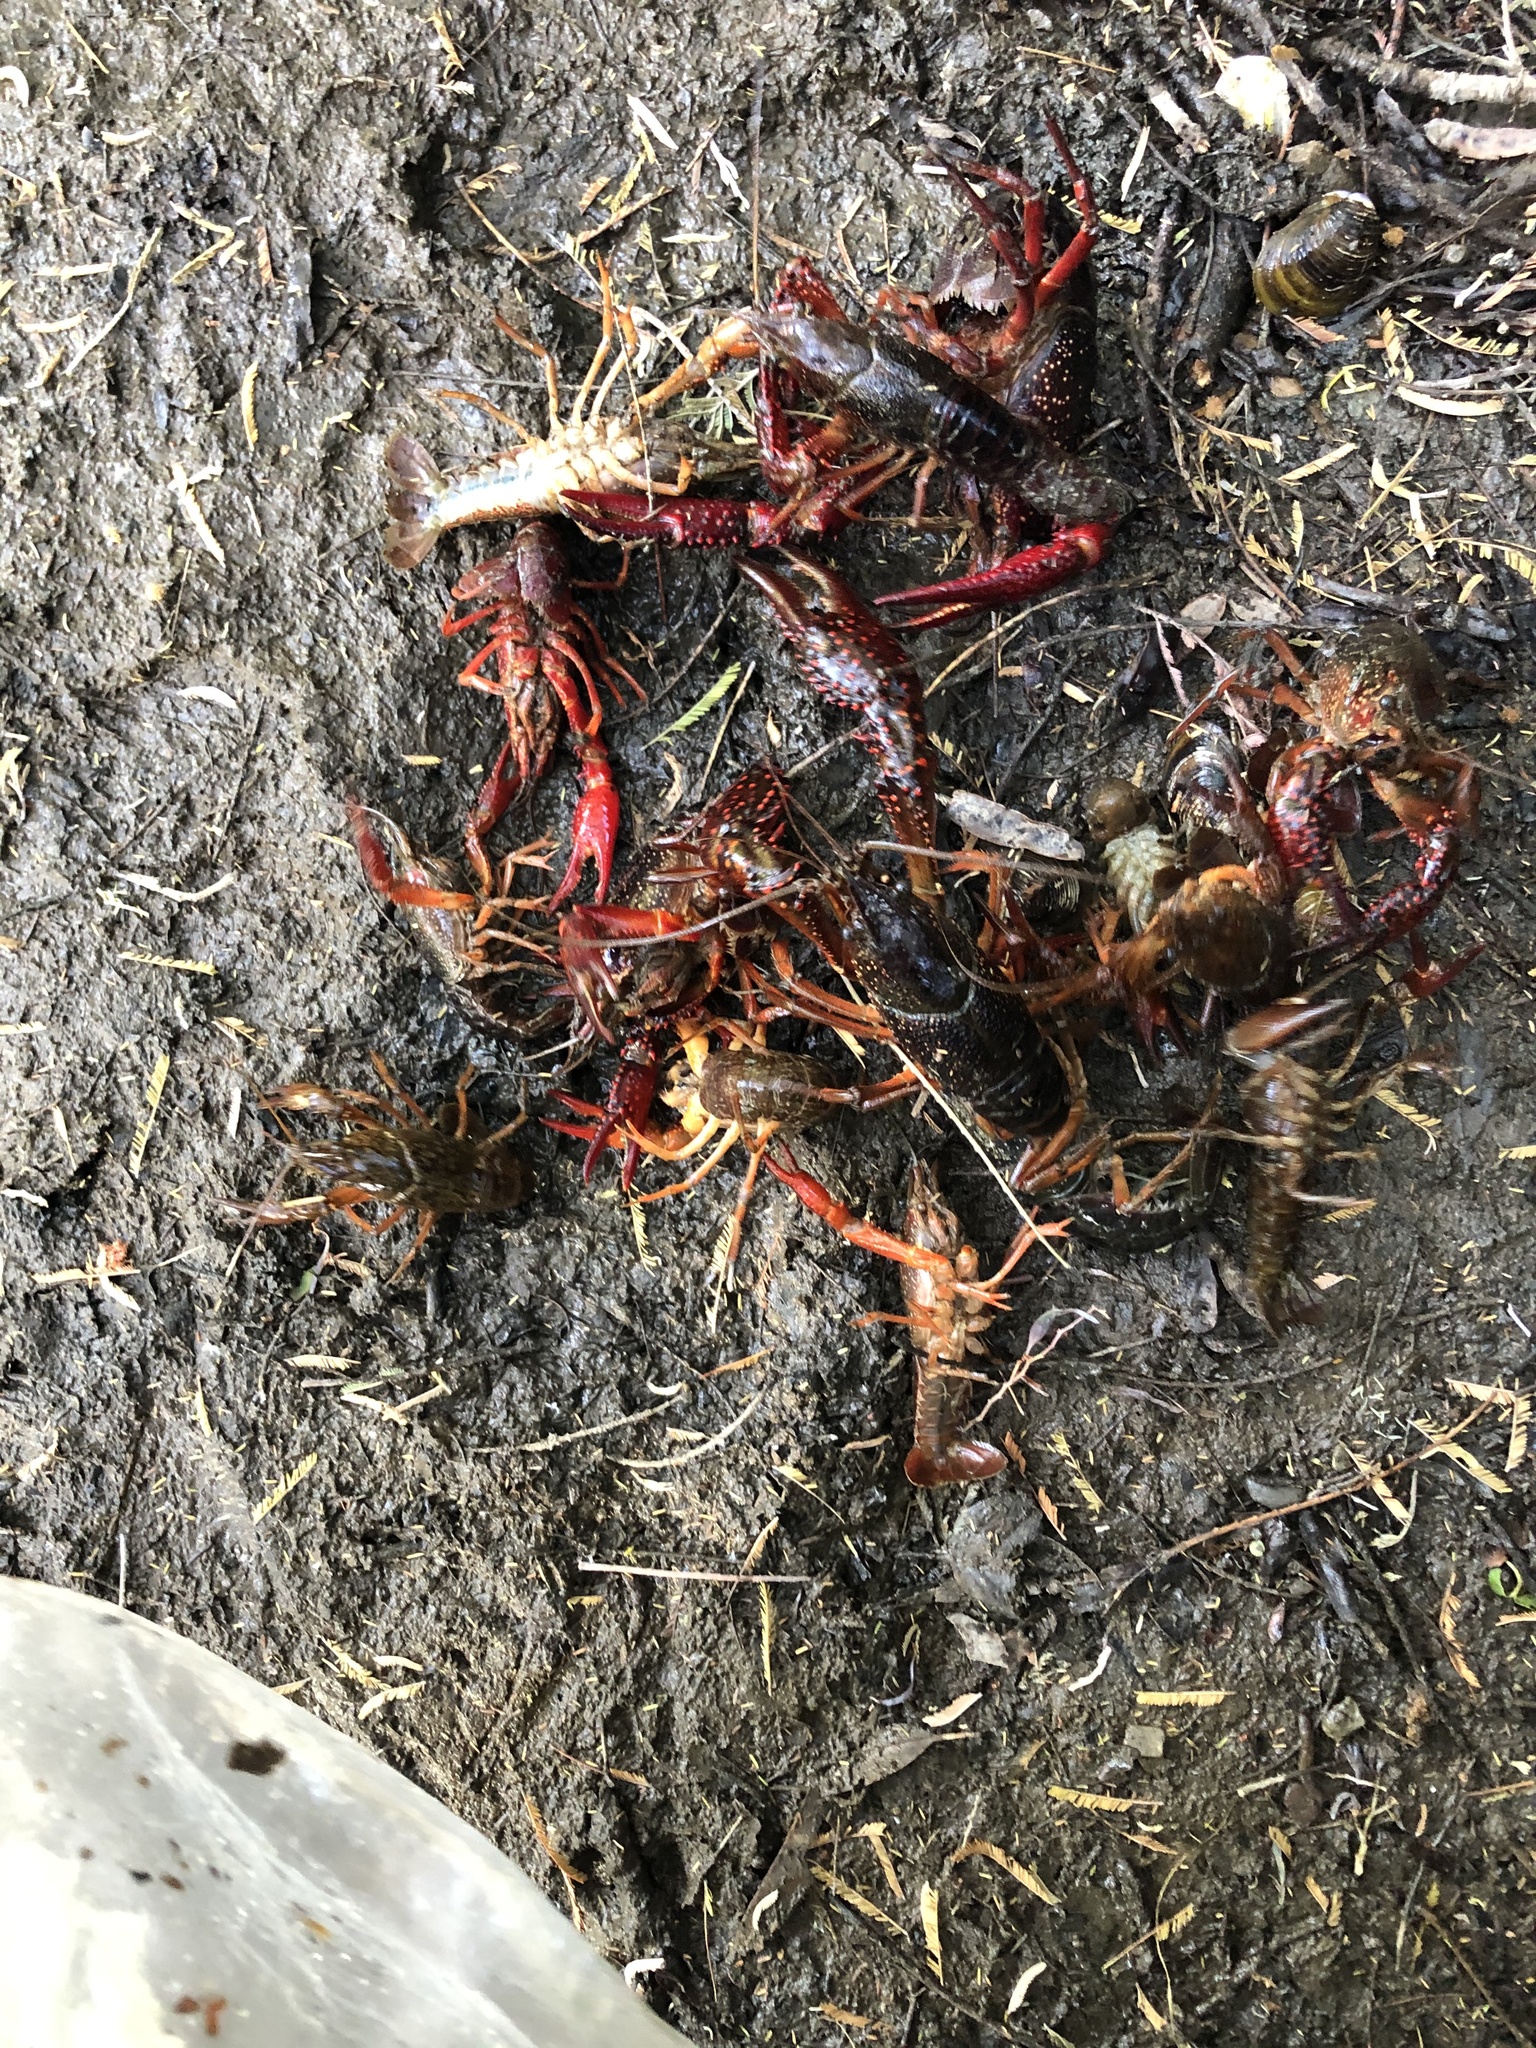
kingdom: Animalia
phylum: Arthropoda
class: Malacostraca
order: Decapoda
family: Cambaridae
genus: Procambarus
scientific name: Procambarus clarkii
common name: Red swamp crayfish
